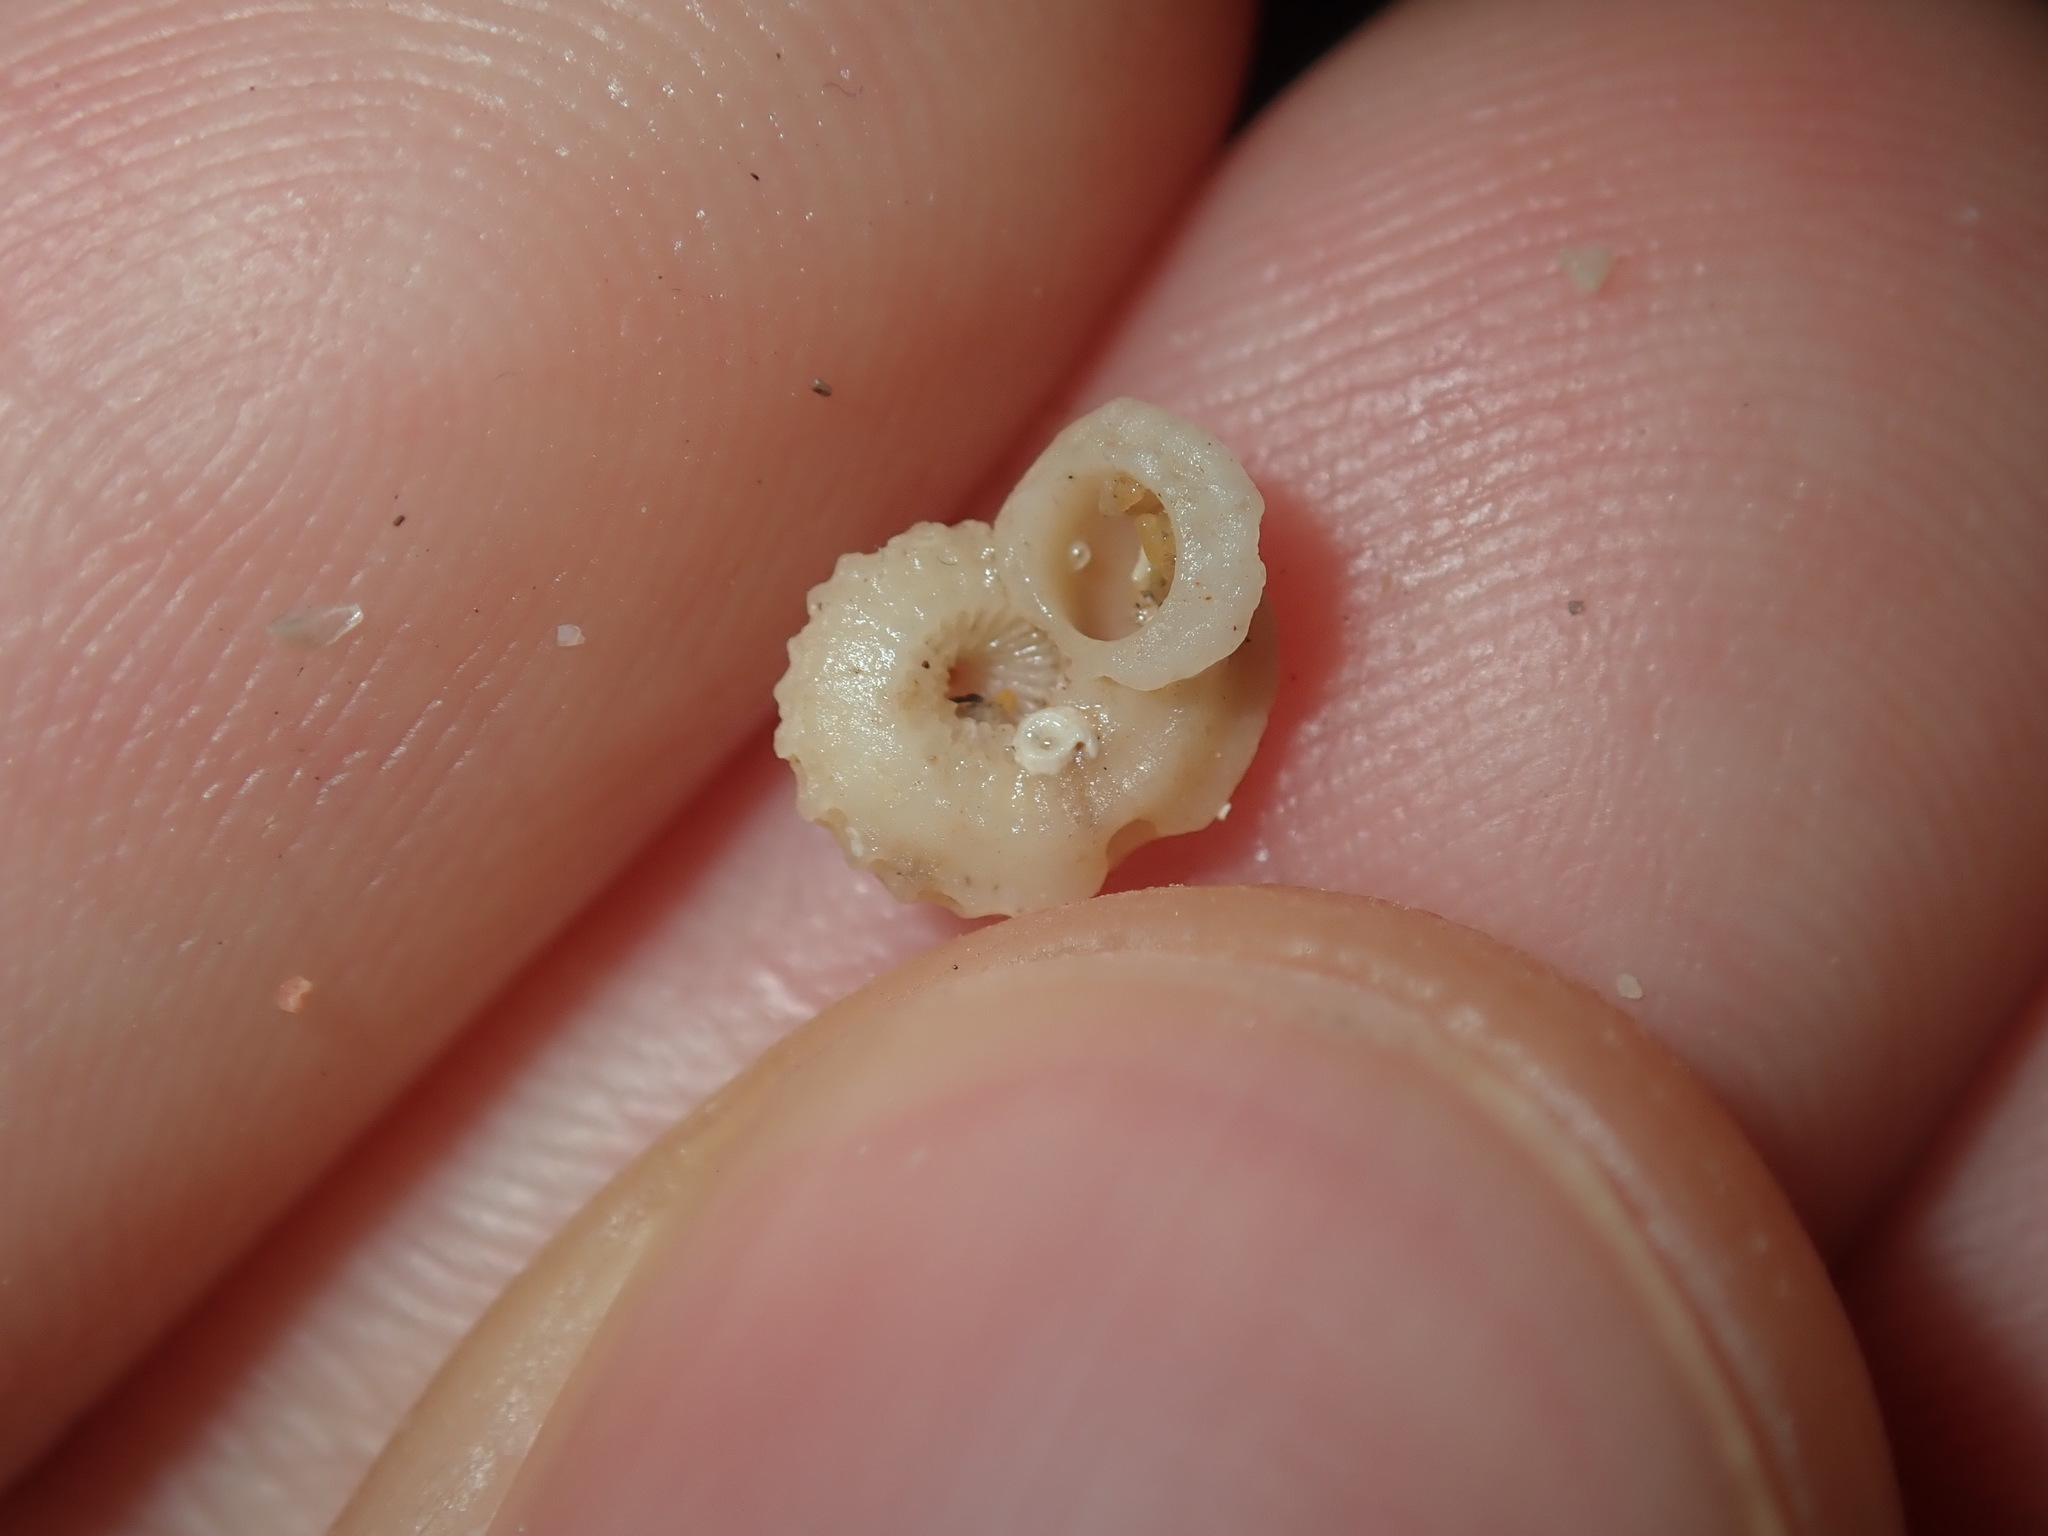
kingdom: Animalia
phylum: Mollusca
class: Gastropoda
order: Trochida
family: Liotiidae
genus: Austroliotia
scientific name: Austroliotia botanica
